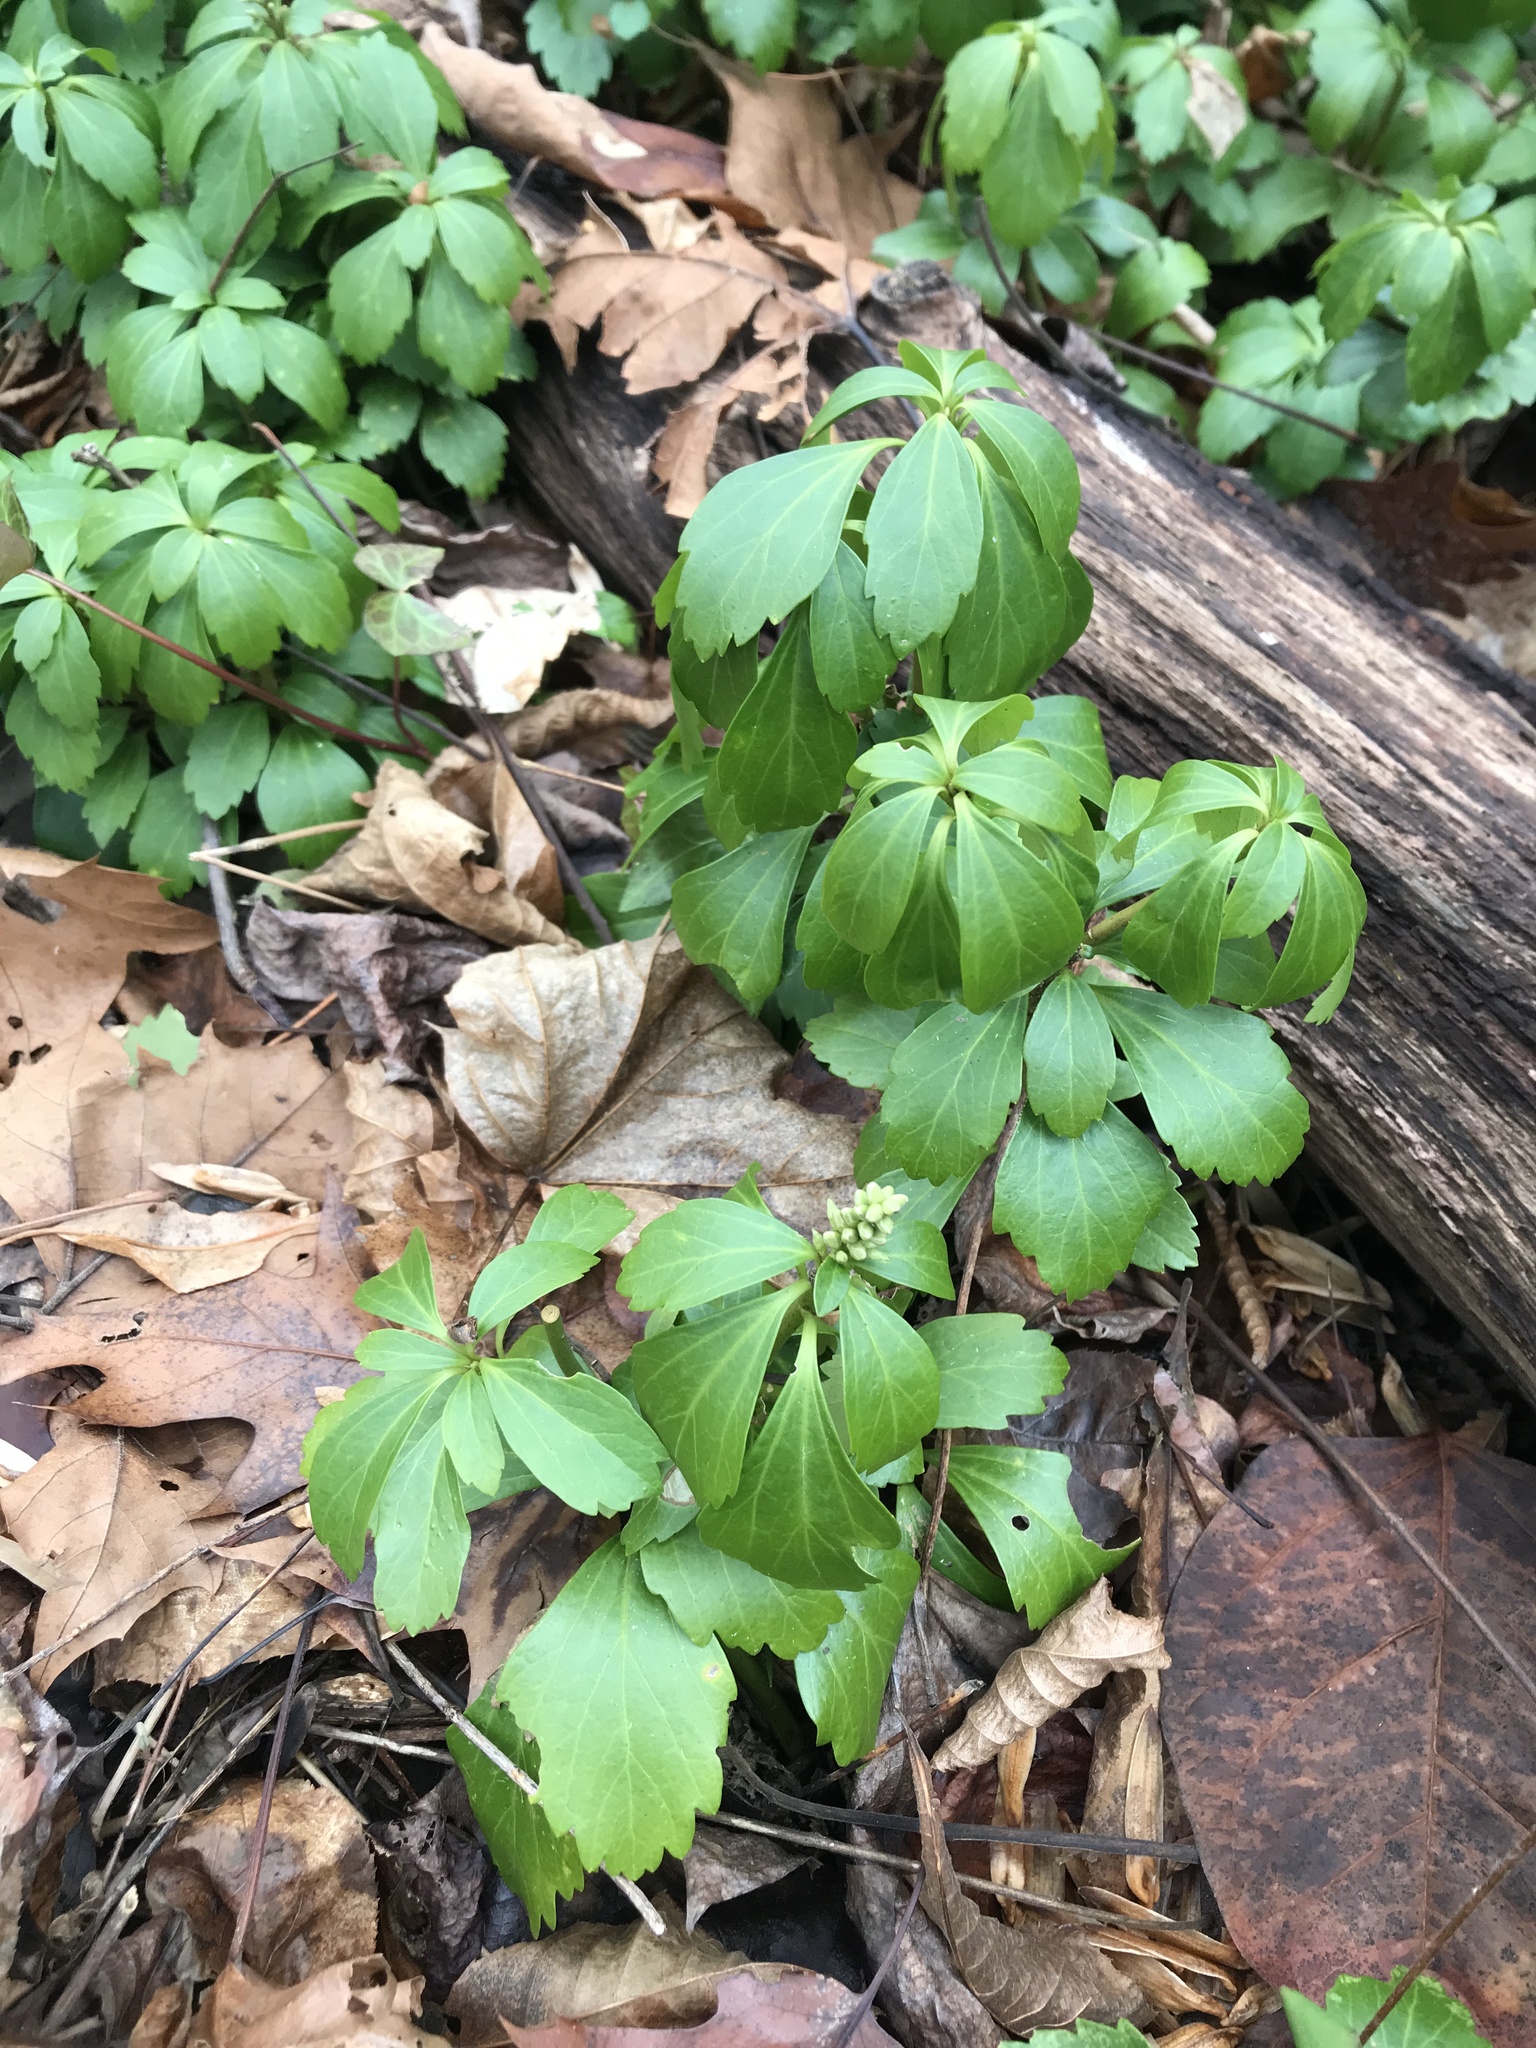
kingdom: Plantae
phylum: Tracheophyta
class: Magnoliopsida
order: Buxales
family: Buxaceae
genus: Pachysandra
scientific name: Pachysandra terminalis
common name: Japanese pachysandra
